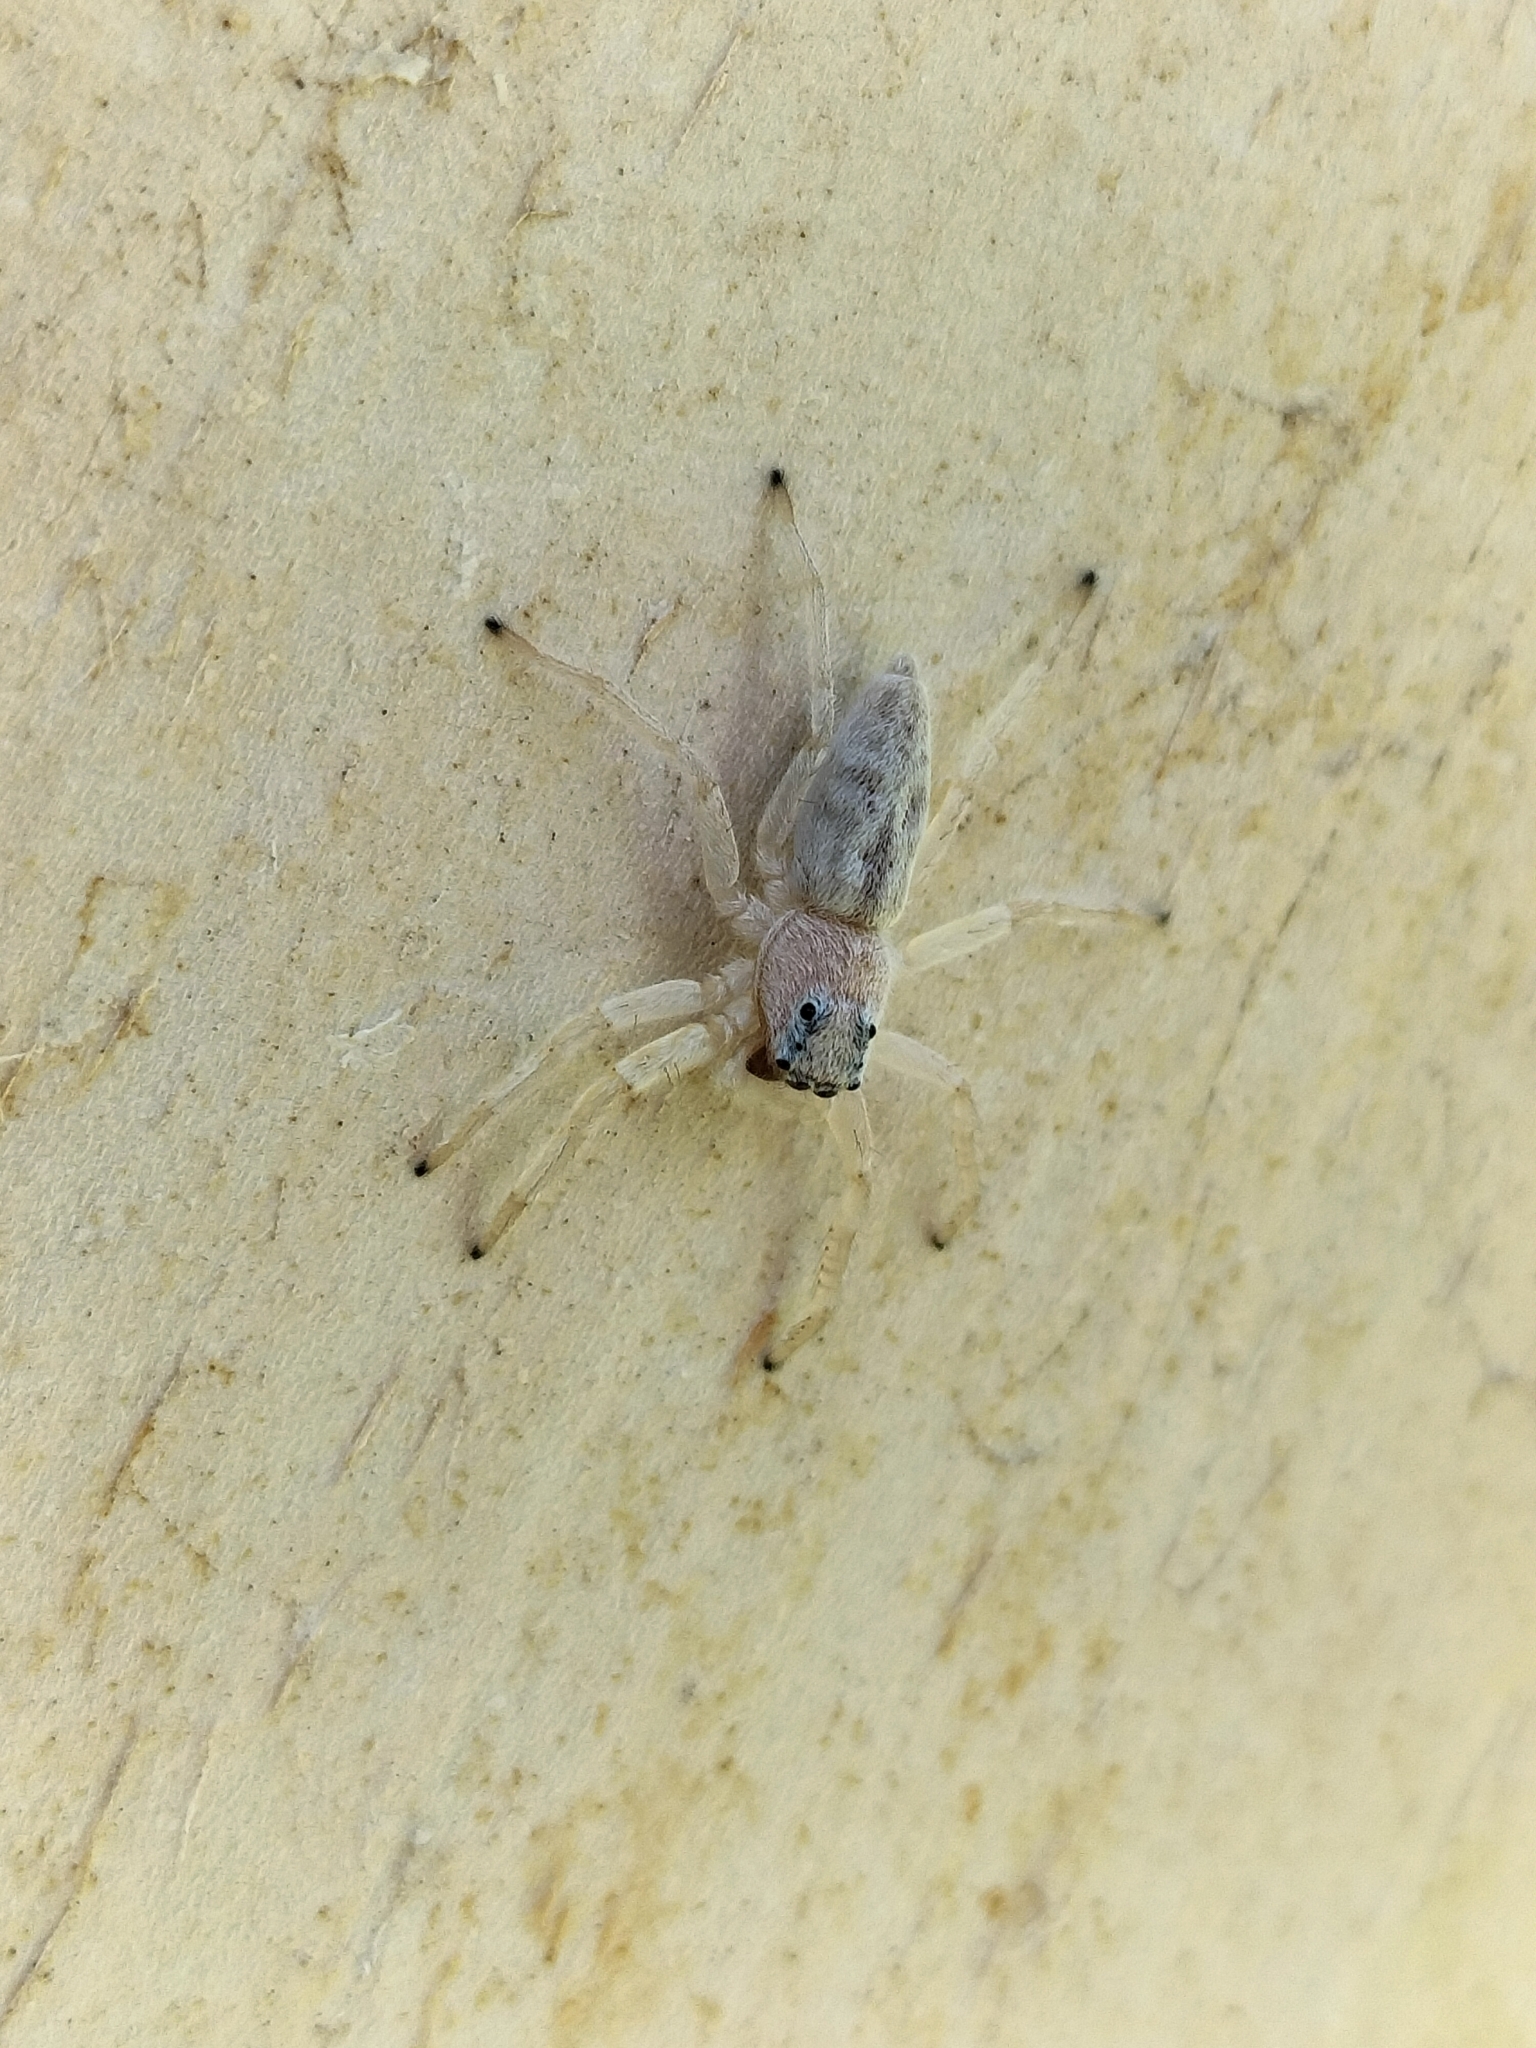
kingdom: Animalia
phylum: Arthropoda
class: Arachnida
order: Araneae
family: Salticidae
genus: Arasia
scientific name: Arasia mollicoma
